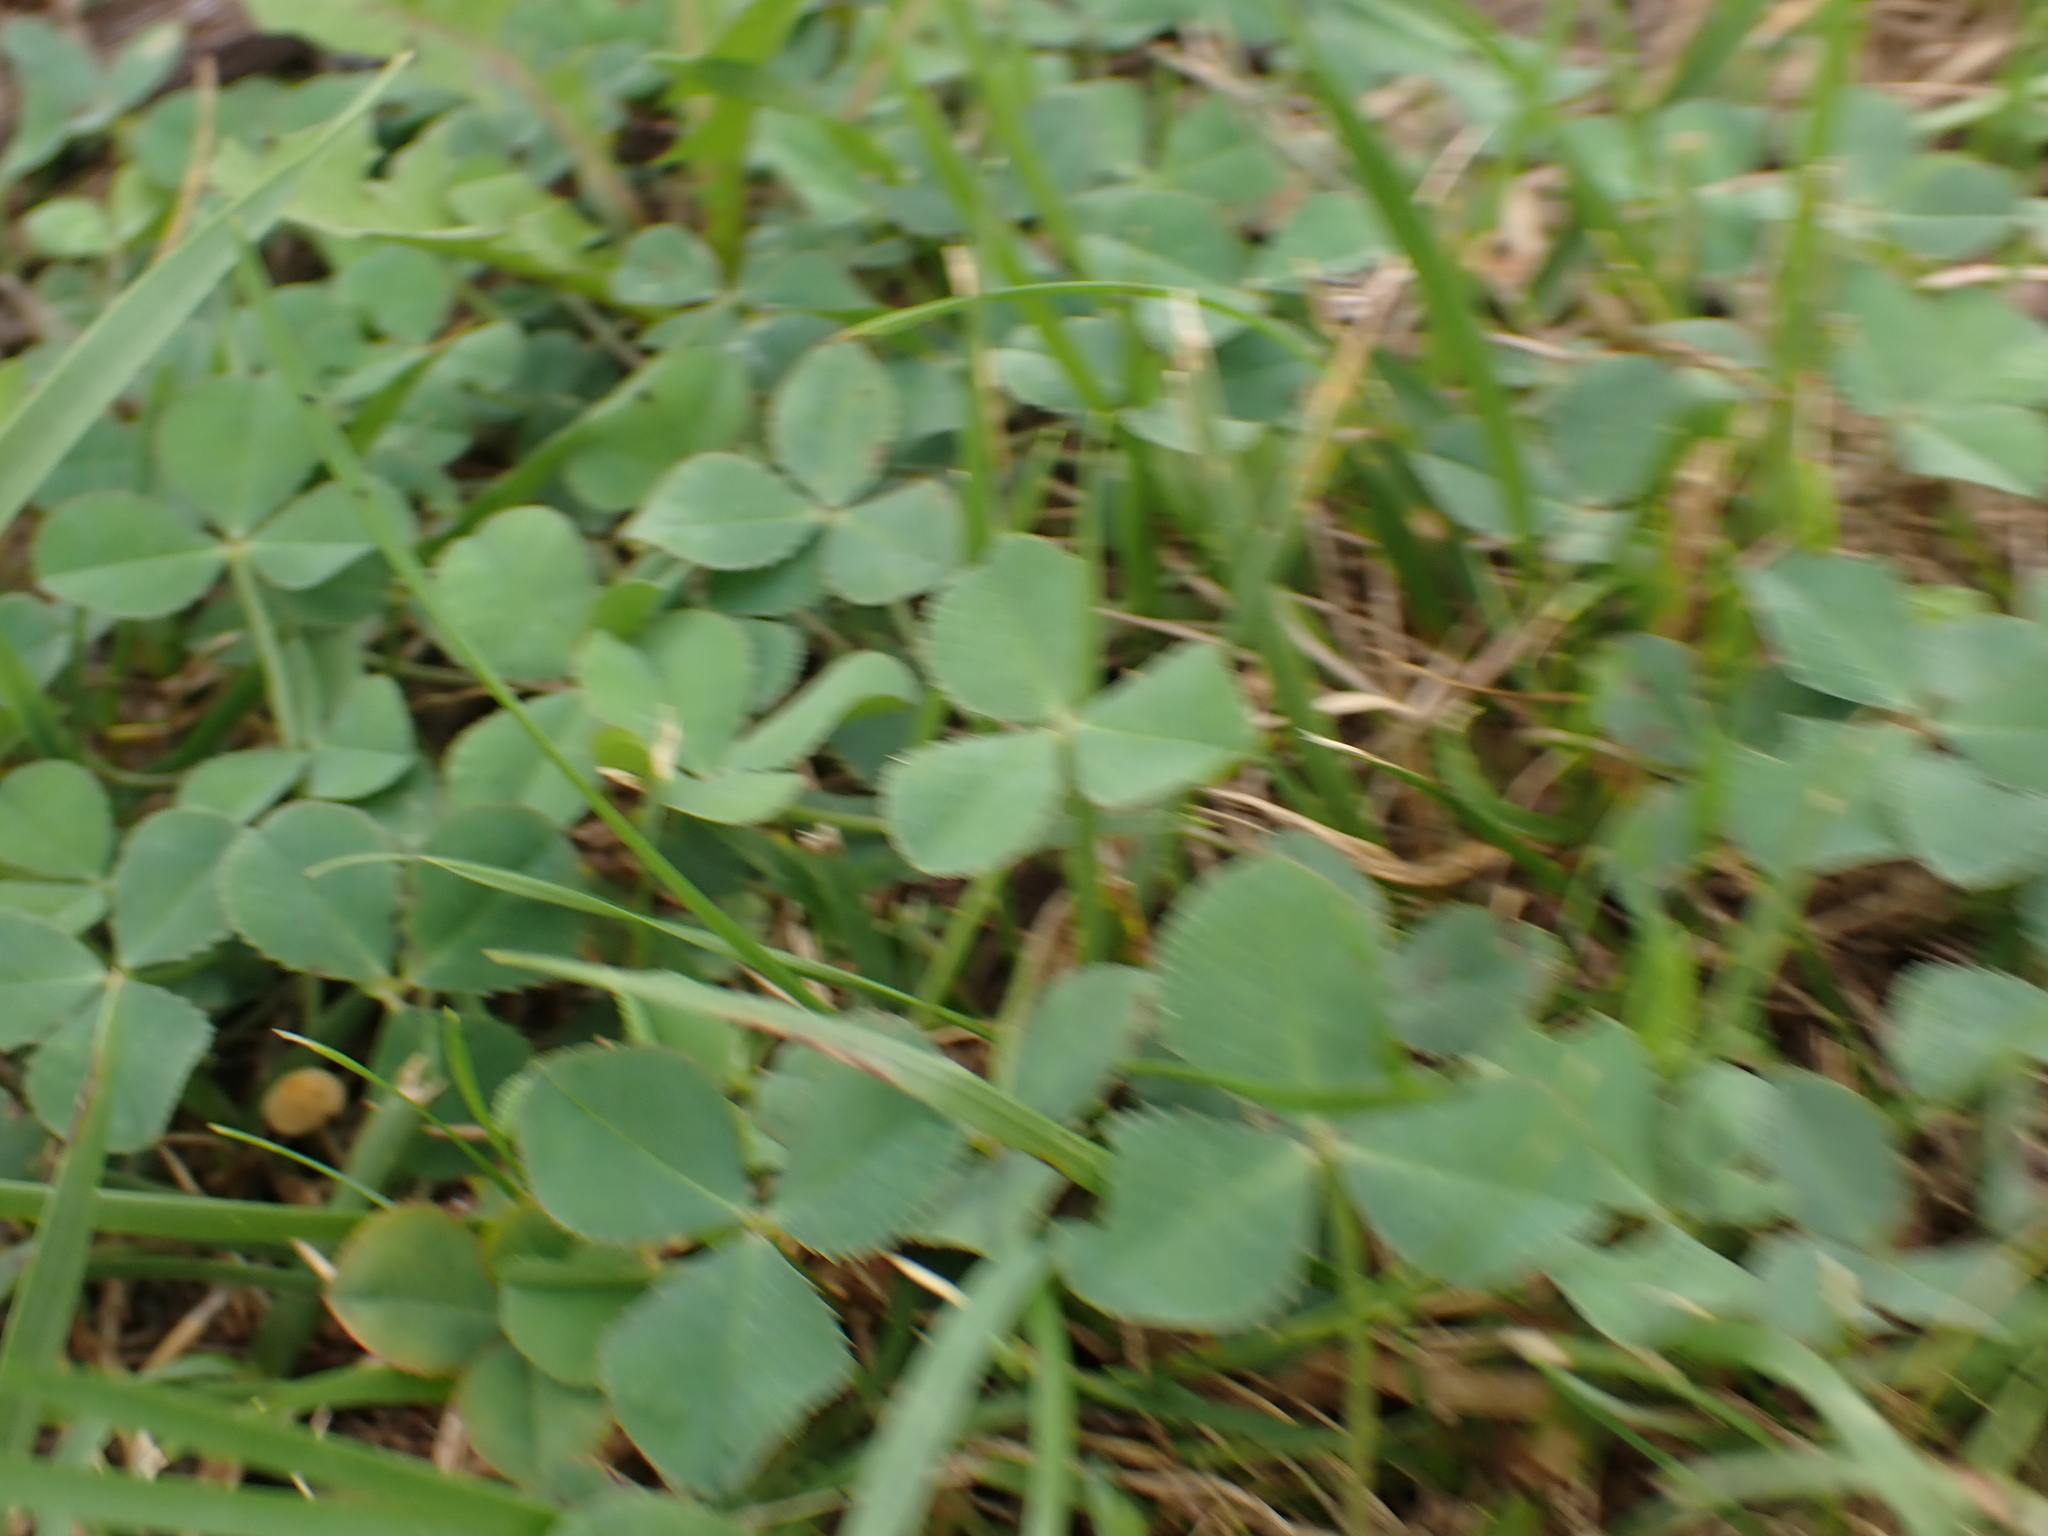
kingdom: Plantae
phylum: Tracheophyta
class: Magnoliopsida
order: Fabales
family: Fabaceae
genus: Trifolium
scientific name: Trifolium repens
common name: White clover
